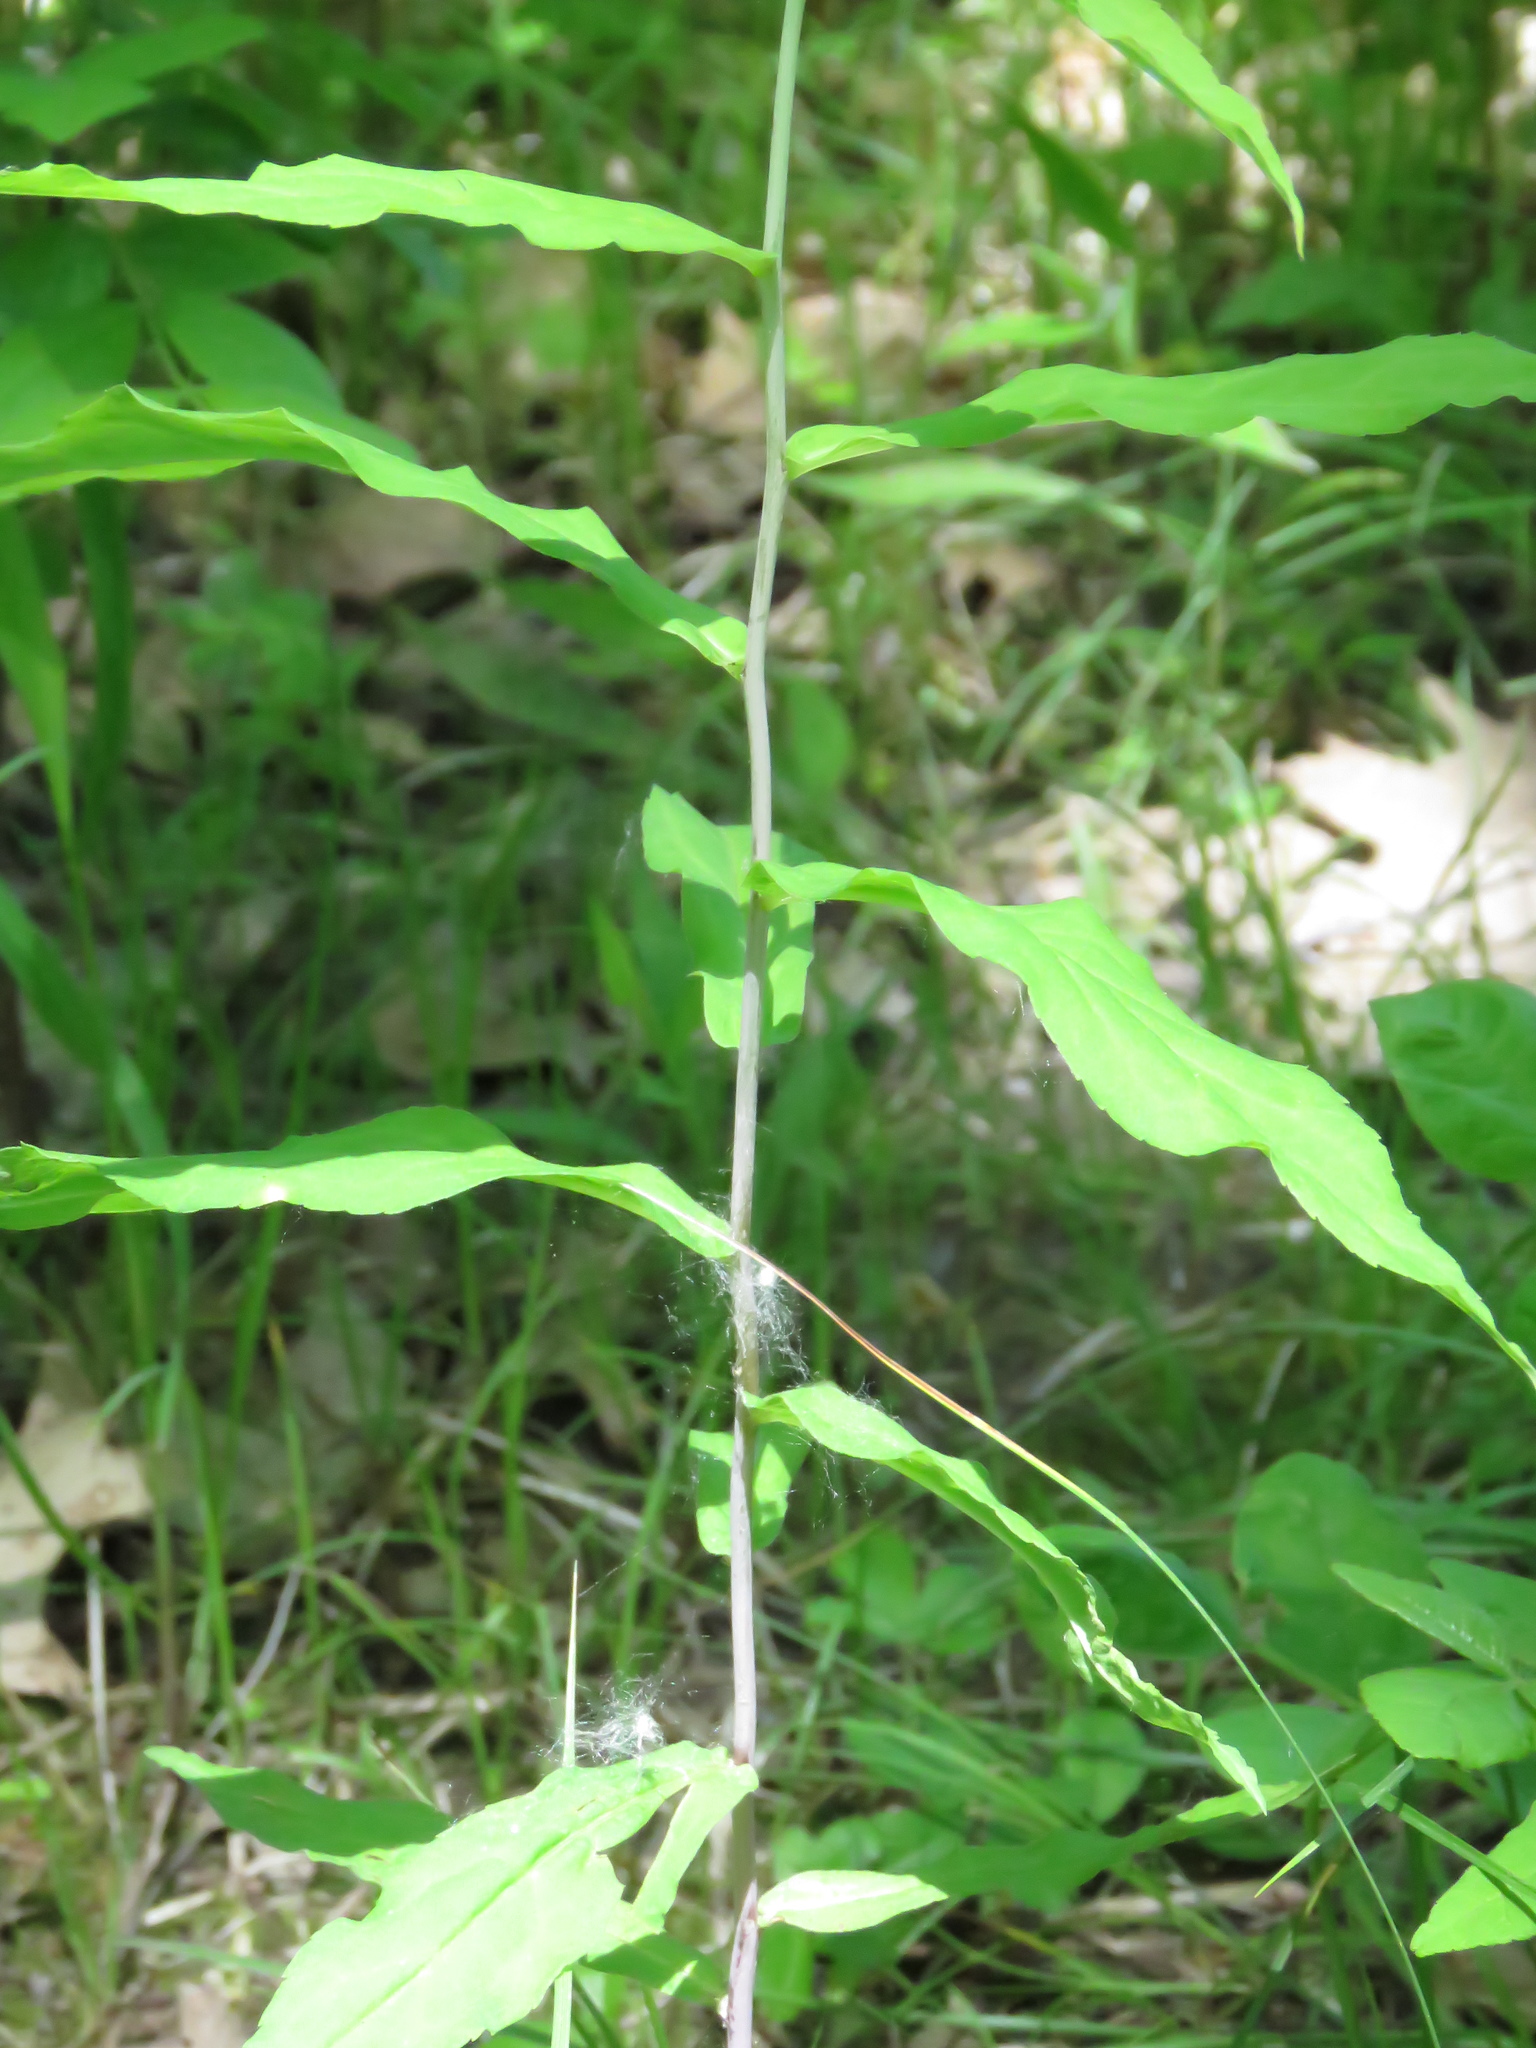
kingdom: Plantae
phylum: Tracheophyta
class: Magnoliopsida
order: Asterales
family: Asteraceae
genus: Solidago
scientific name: Solidago caesia
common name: Woodland goldenrod
